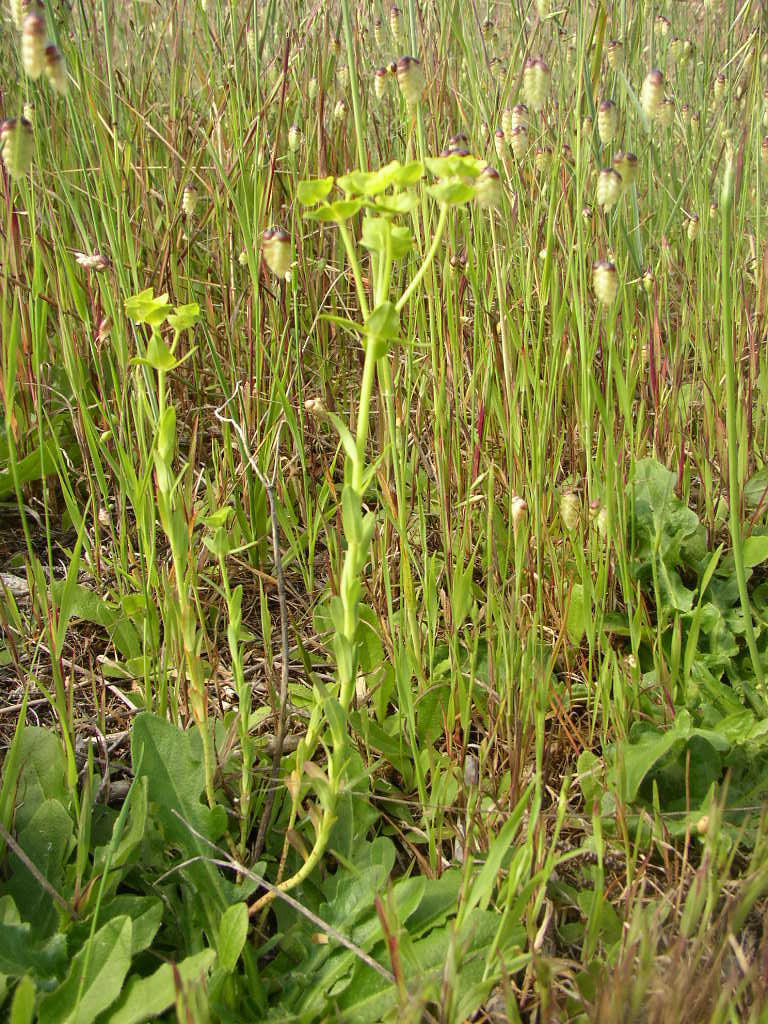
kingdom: Plantae
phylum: Tracheophyta
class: Magnoliopsida
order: Malpighiales
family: Euphorbiaceae
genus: Euphorbia
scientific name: Euphorbia terracina
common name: Geraldton carnation weed
